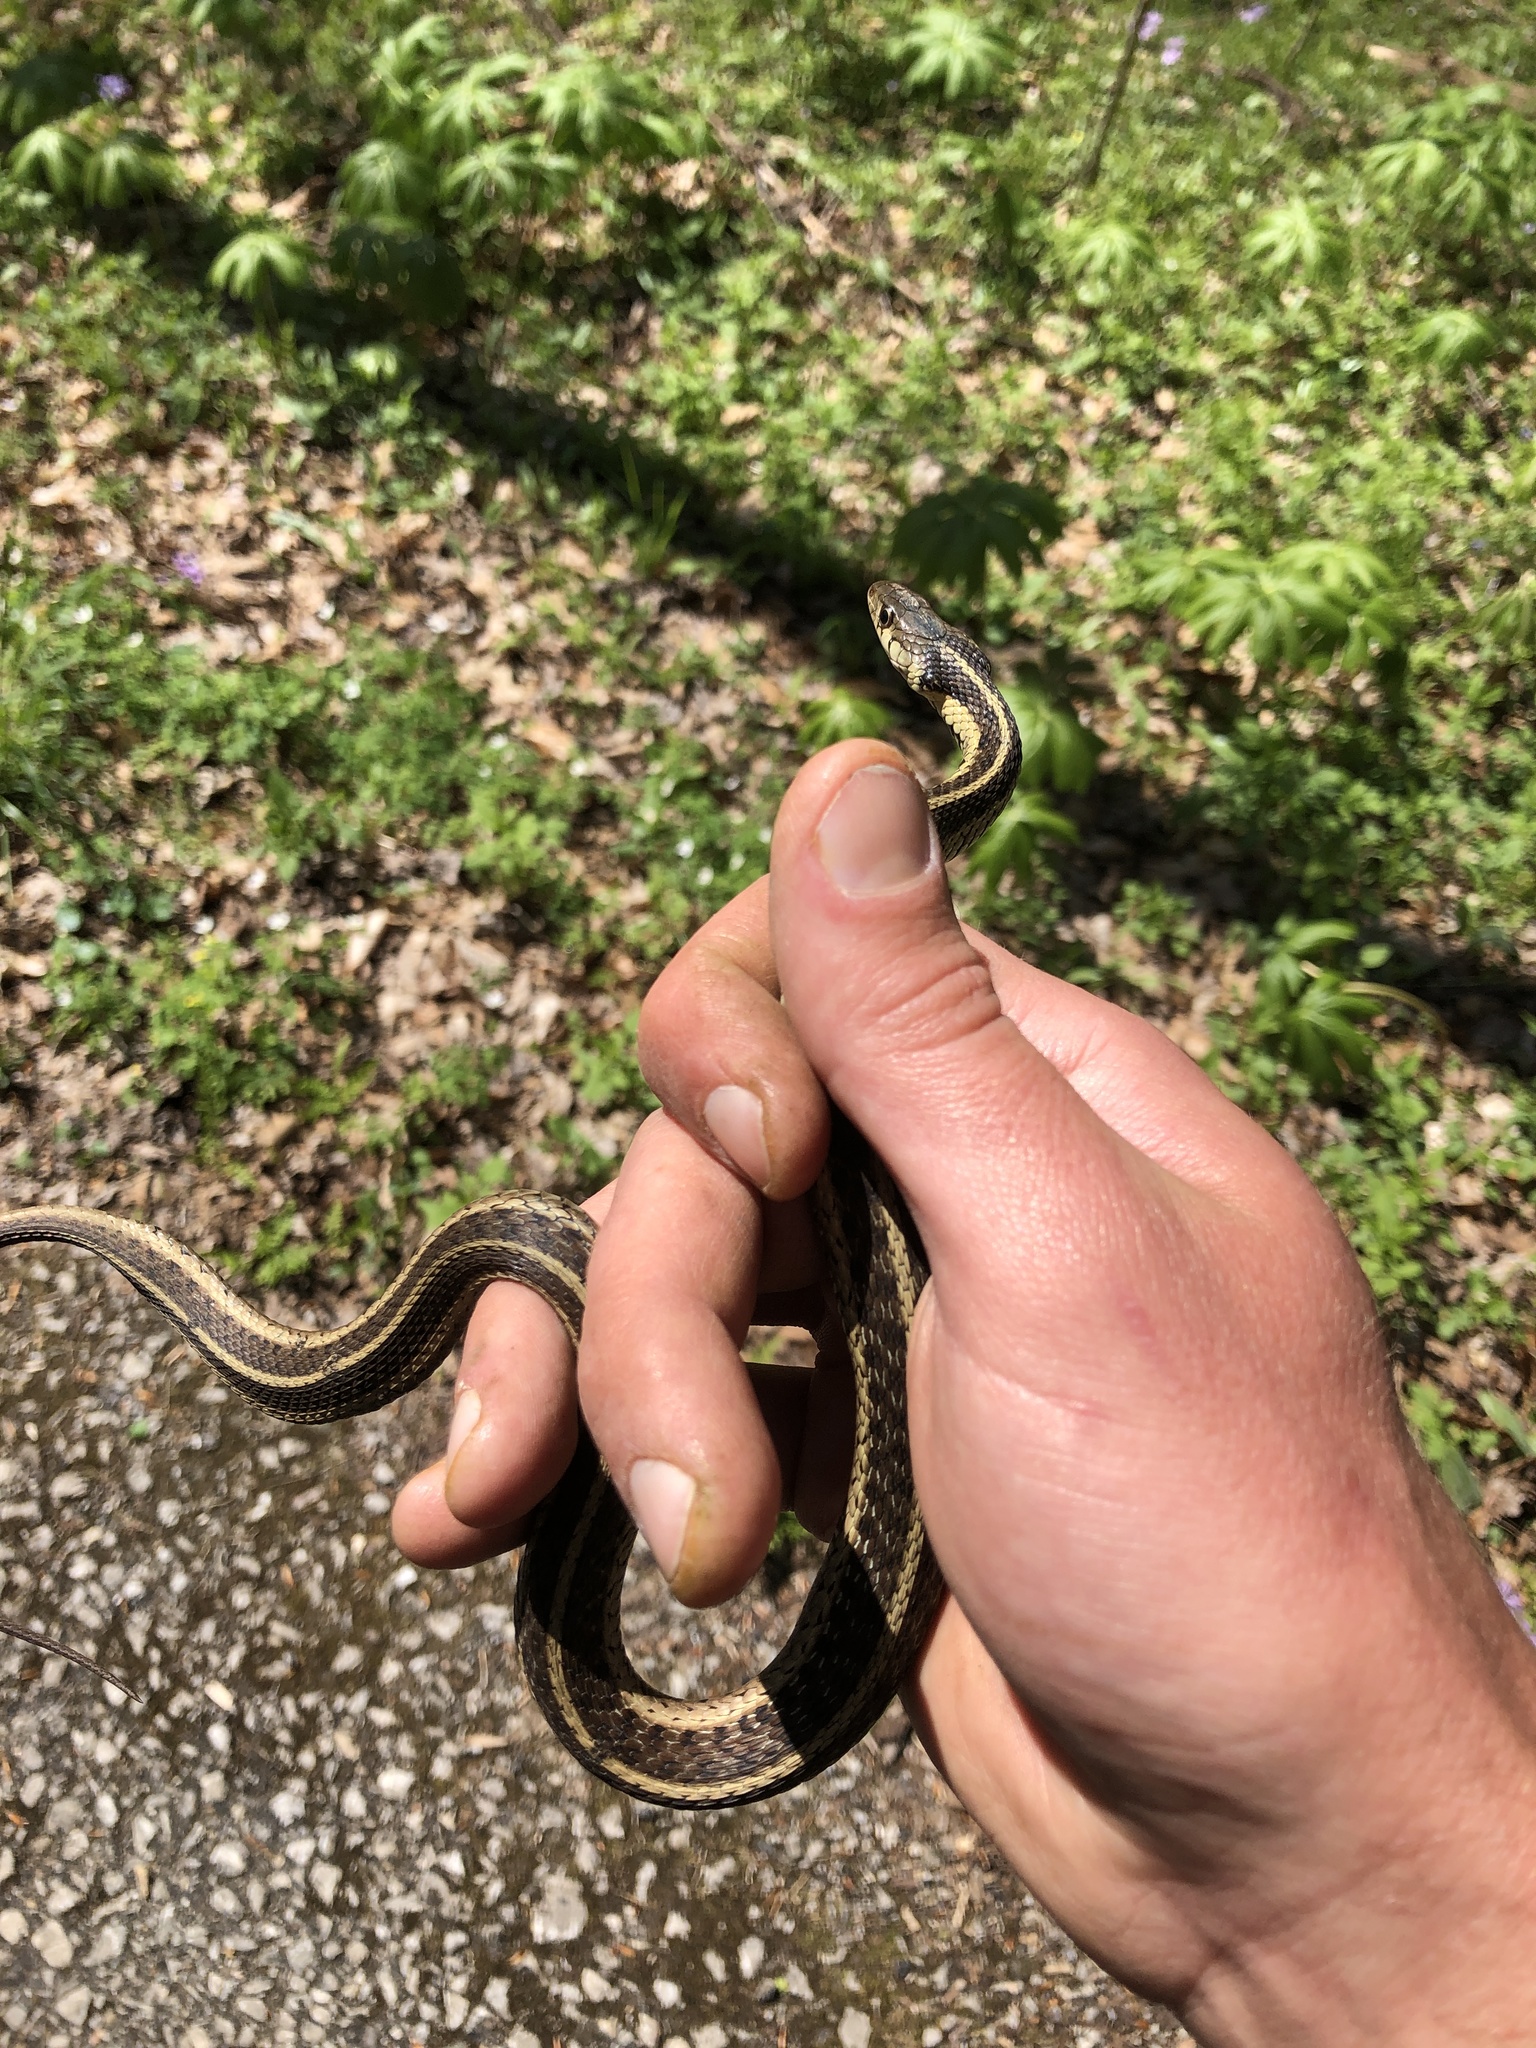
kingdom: Animalia
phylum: Chordata
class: Squamata
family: Colubridae
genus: Thamnophis
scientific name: Thamnophis sirtalis
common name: Common garter snake
